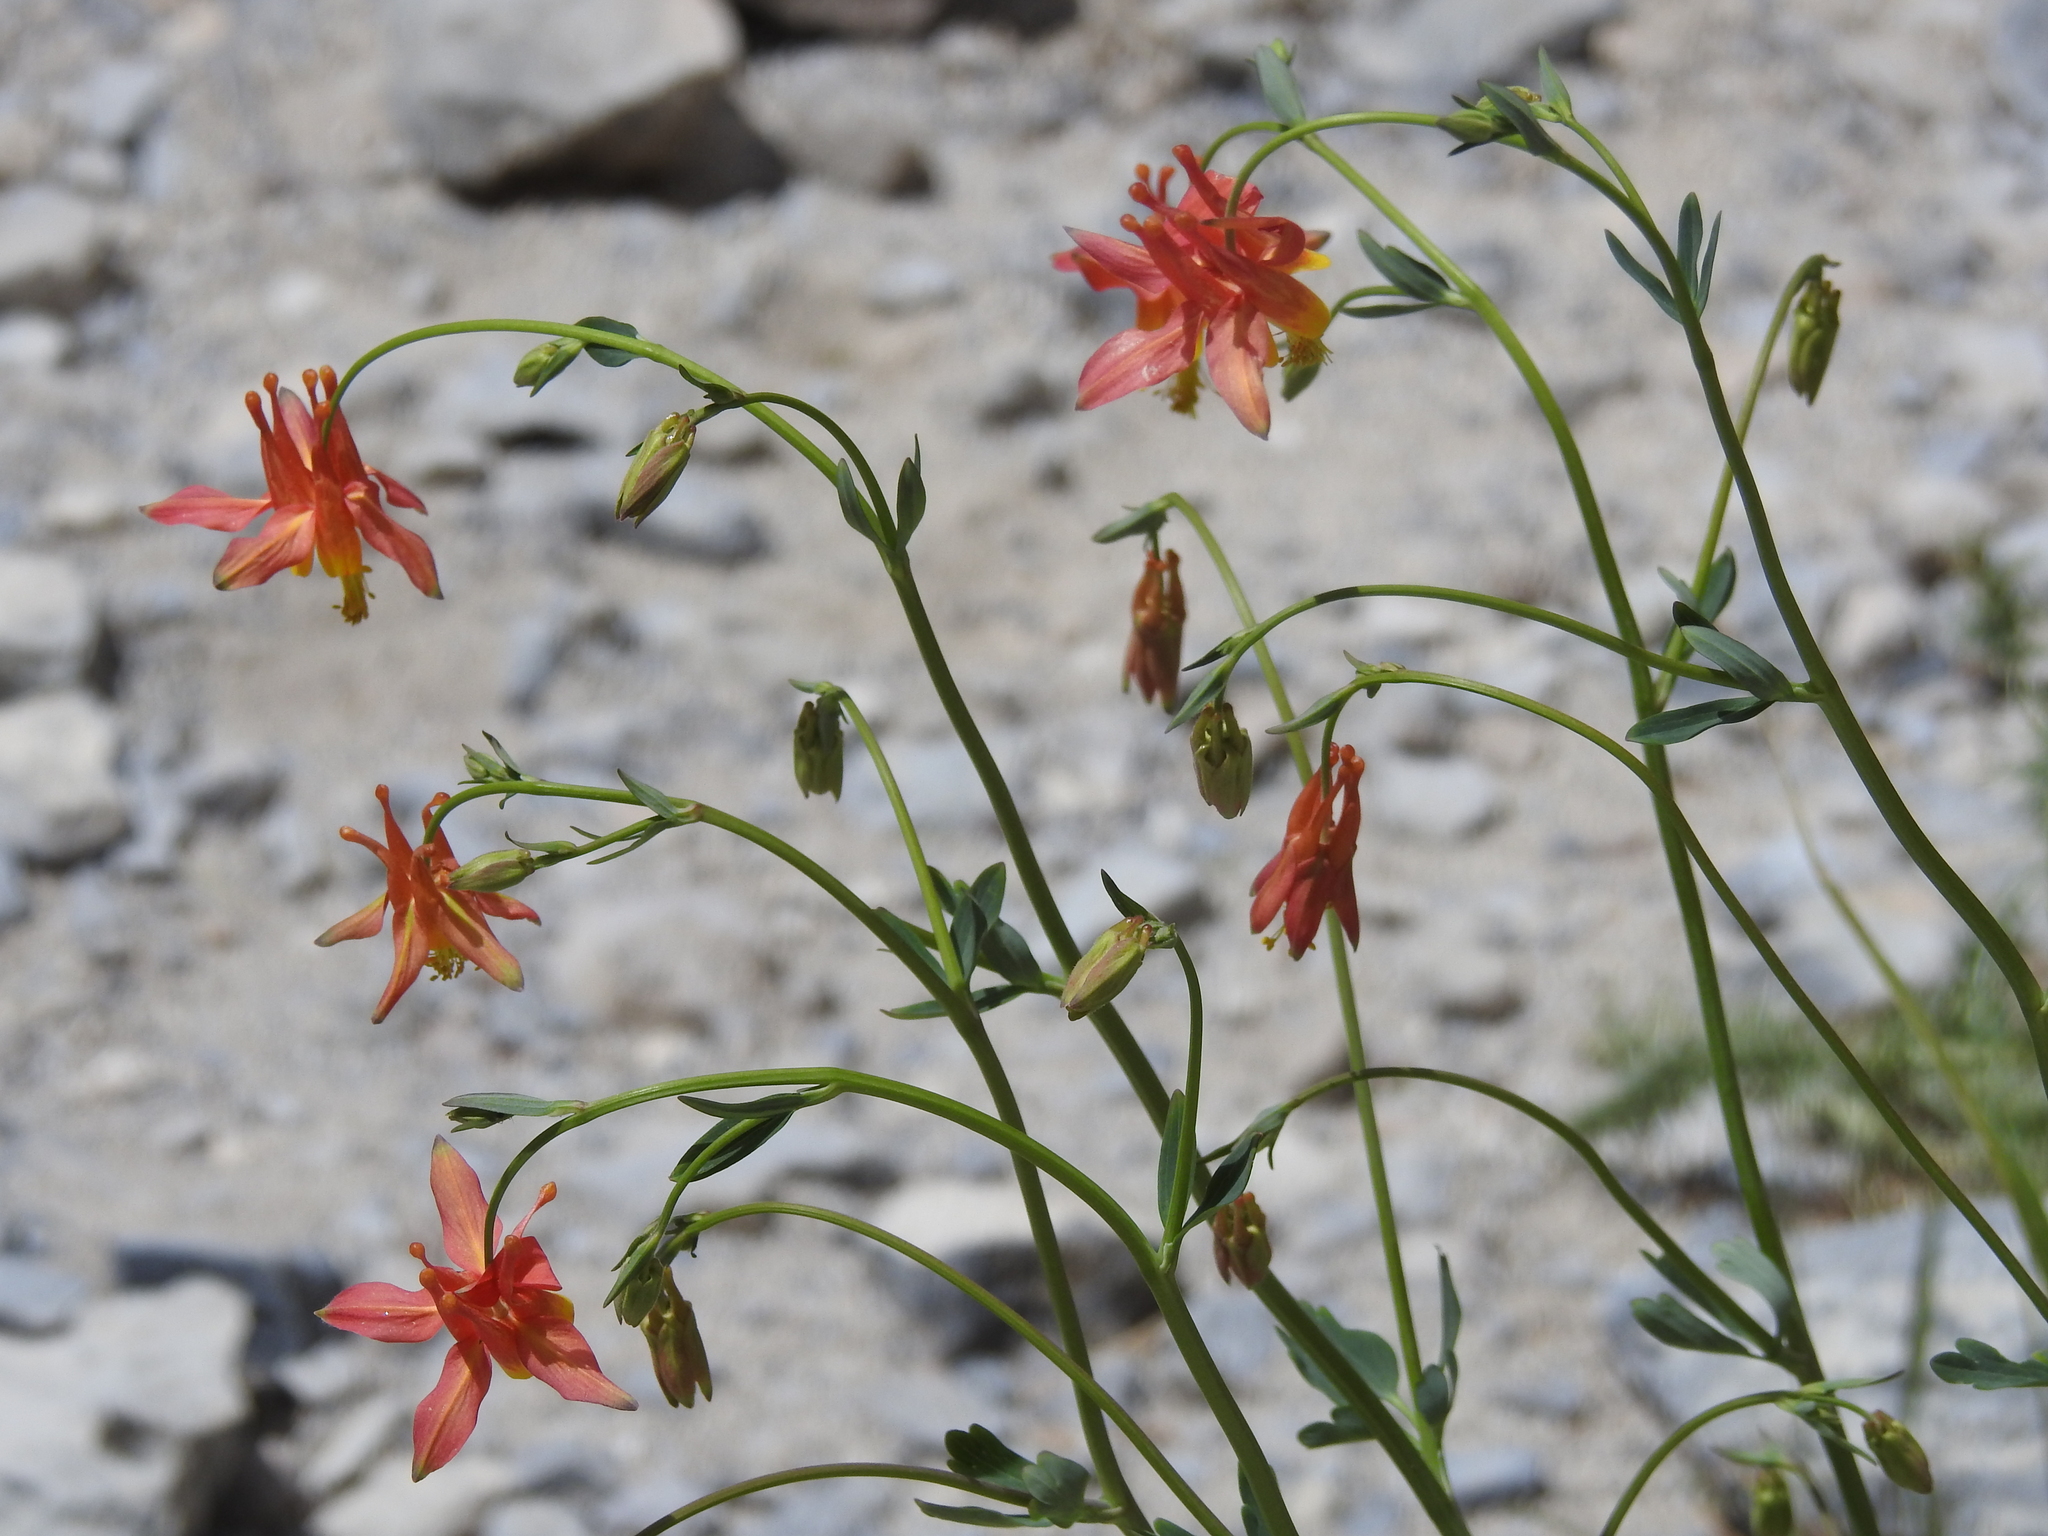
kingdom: Plantae
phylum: Tracheophyta
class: Magnoliopsida
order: Ranunculales
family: Ranunculaceae
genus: Aquilegia
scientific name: Aquilegia formosa
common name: Sitka columbine
